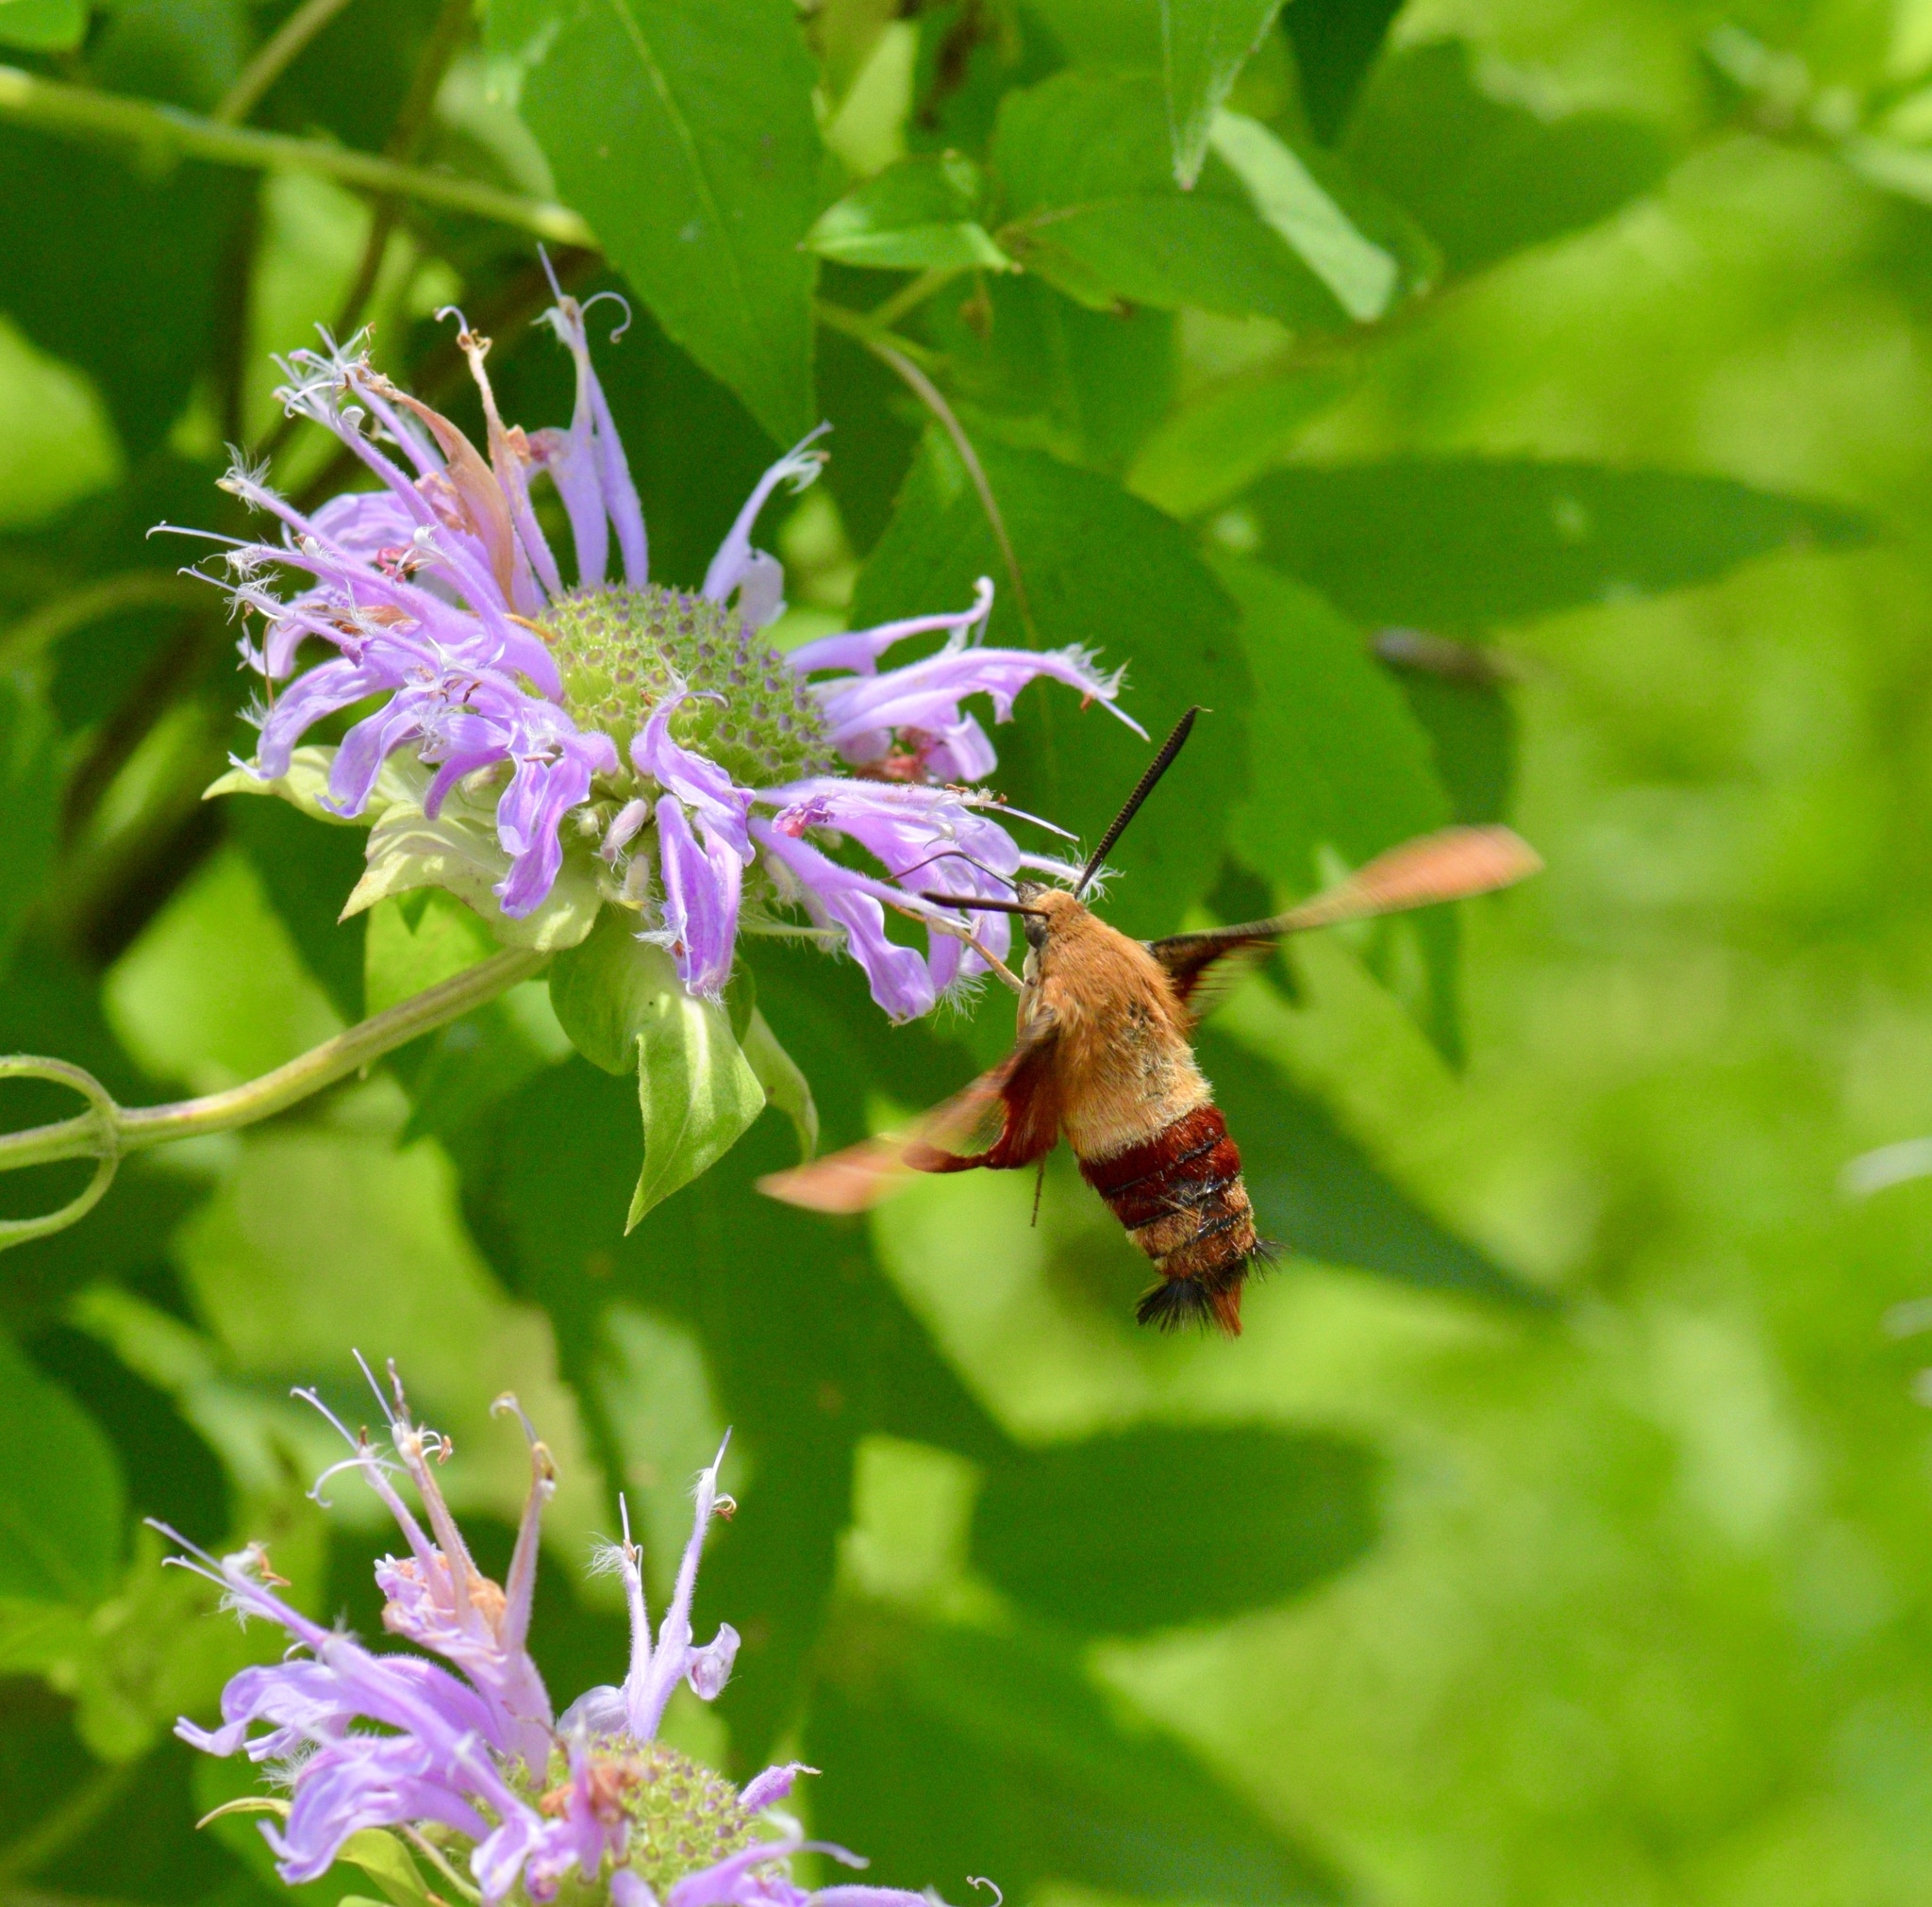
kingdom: Animalia
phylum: Arthropoda
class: Insecta
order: Lepidoptera
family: Sphingidae
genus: Hemaris
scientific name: Hemaris thysbe
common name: Common clear-wing
